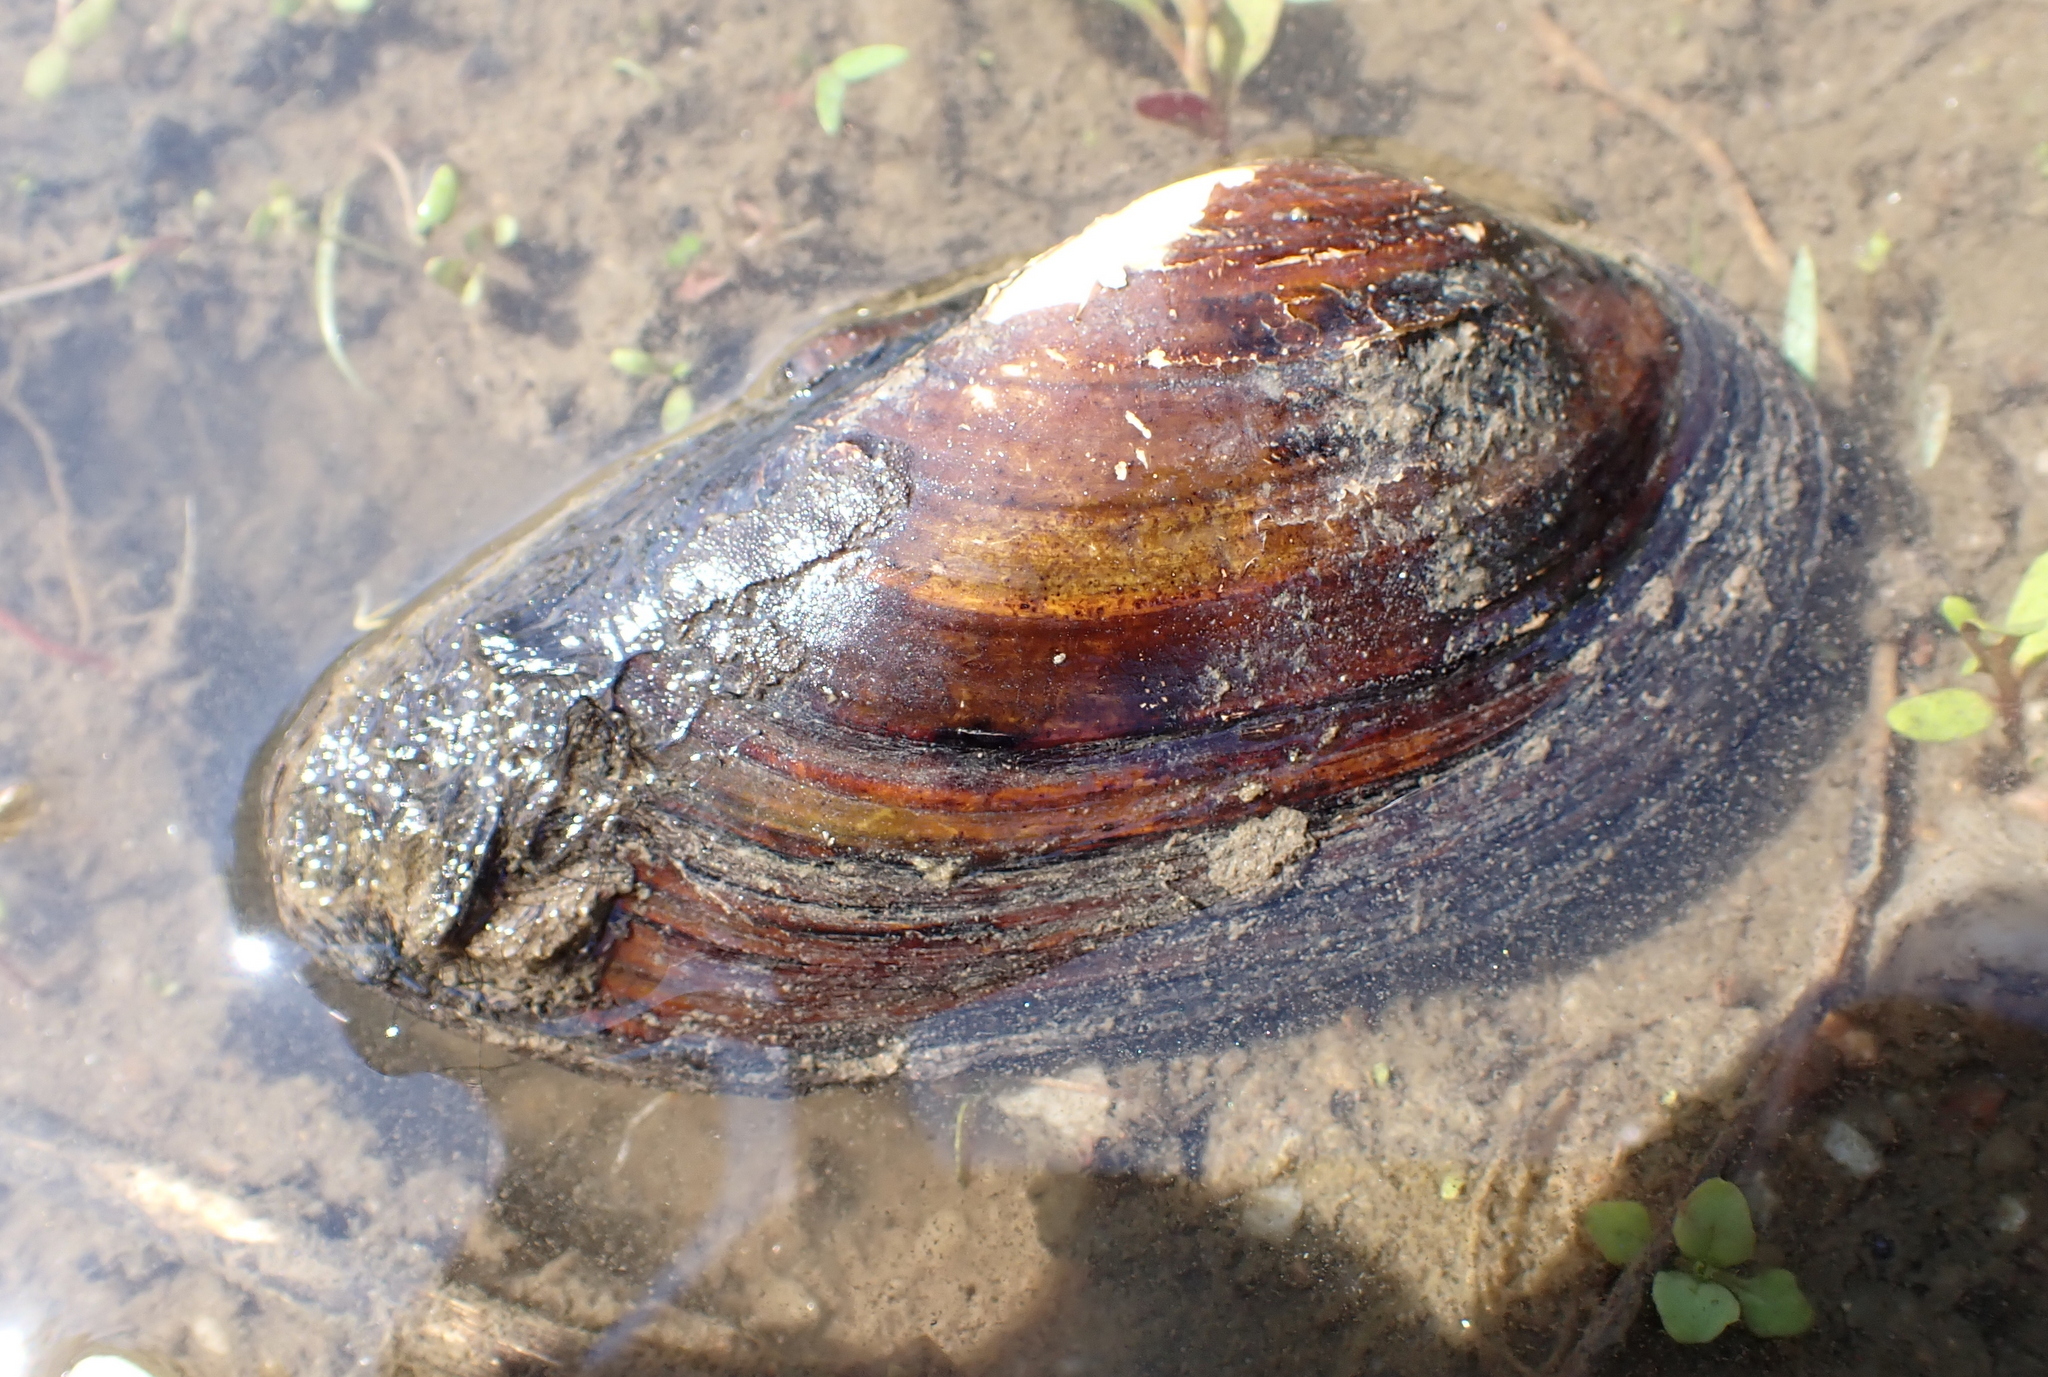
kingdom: Animalia
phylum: Mollusca
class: Bivalvia
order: Unionida
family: Unionidae
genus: Unio
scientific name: Unio tumidus
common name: Swollen river mussel
